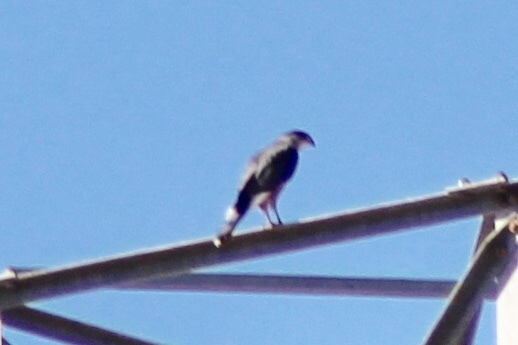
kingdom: Animalia
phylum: Chordata
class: Aves
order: Accipitriformes
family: Accipitridae
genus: Accipiter
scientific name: Accipiter cooperii
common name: Cooper's hawk
